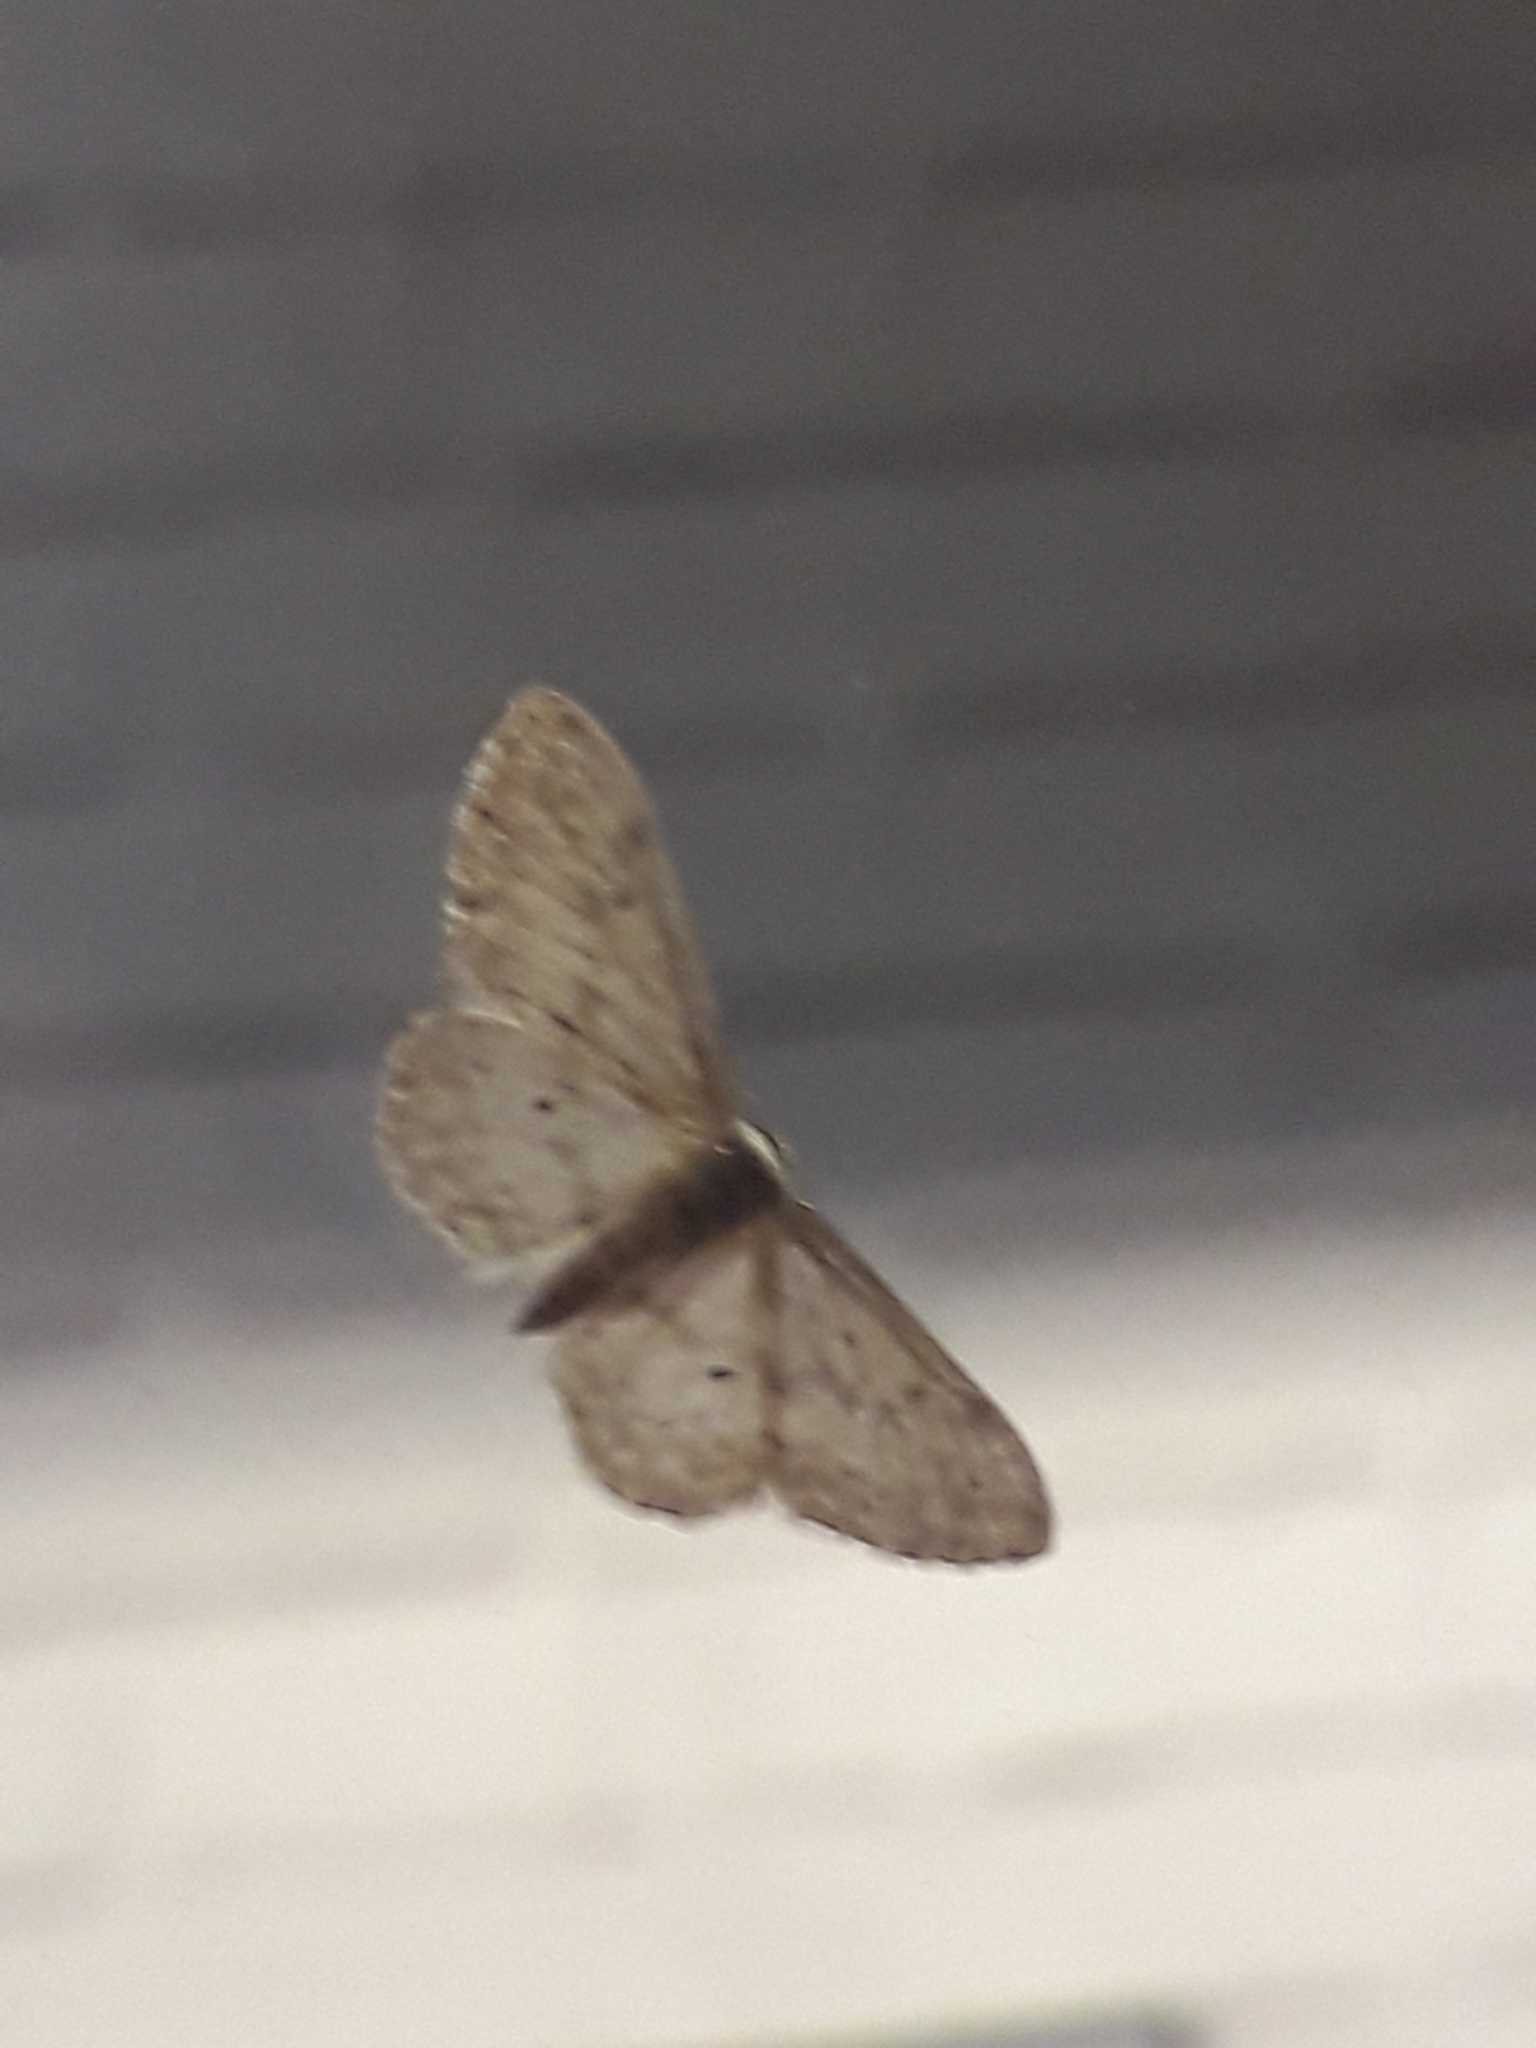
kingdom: Animalia
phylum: Arthropoda
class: Insecta
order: Lepidoptera
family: Geometridae
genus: Idaea
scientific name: Idaea seriata
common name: Small dusty wave
